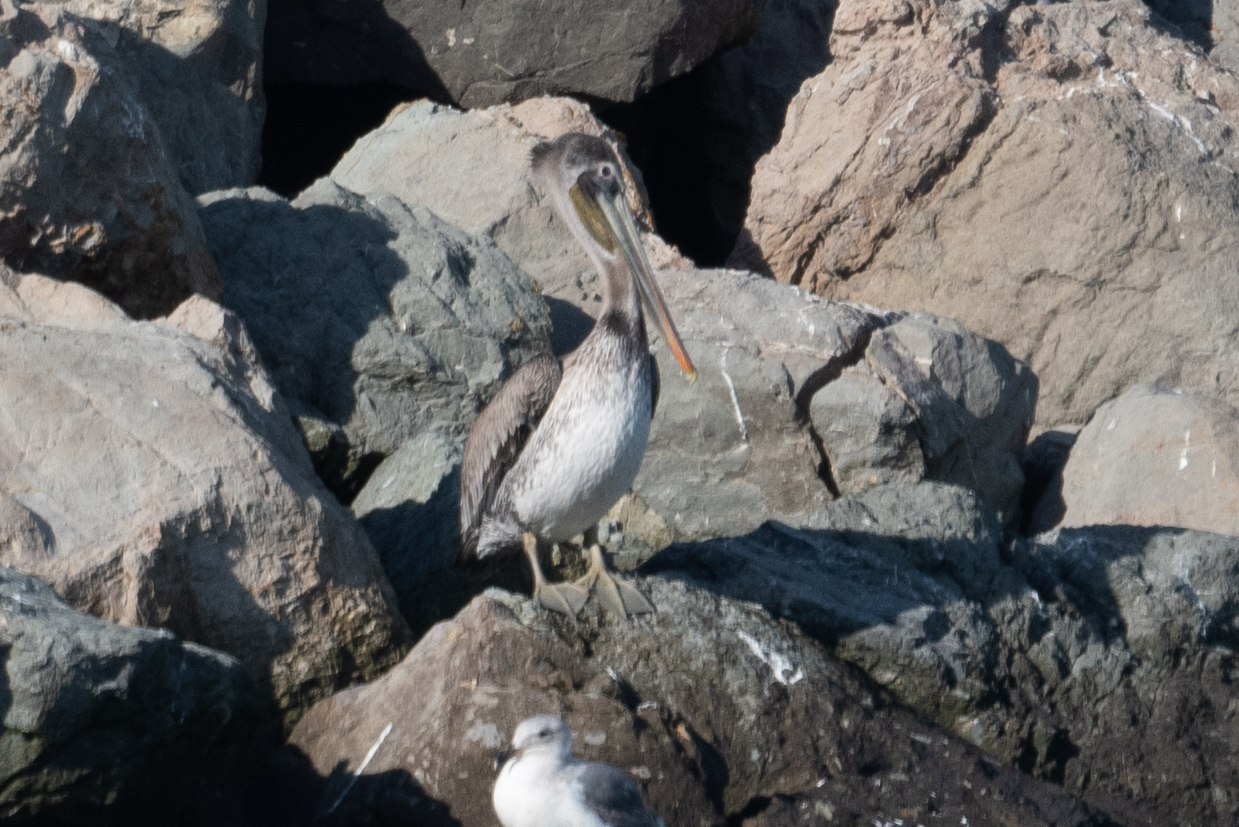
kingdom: Animalia
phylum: Chordata
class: Aves
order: Pelecaniformes
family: Pelecanidae
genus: Pelecanus
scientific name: Pelecanus occidentalis
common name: Brown pelican
